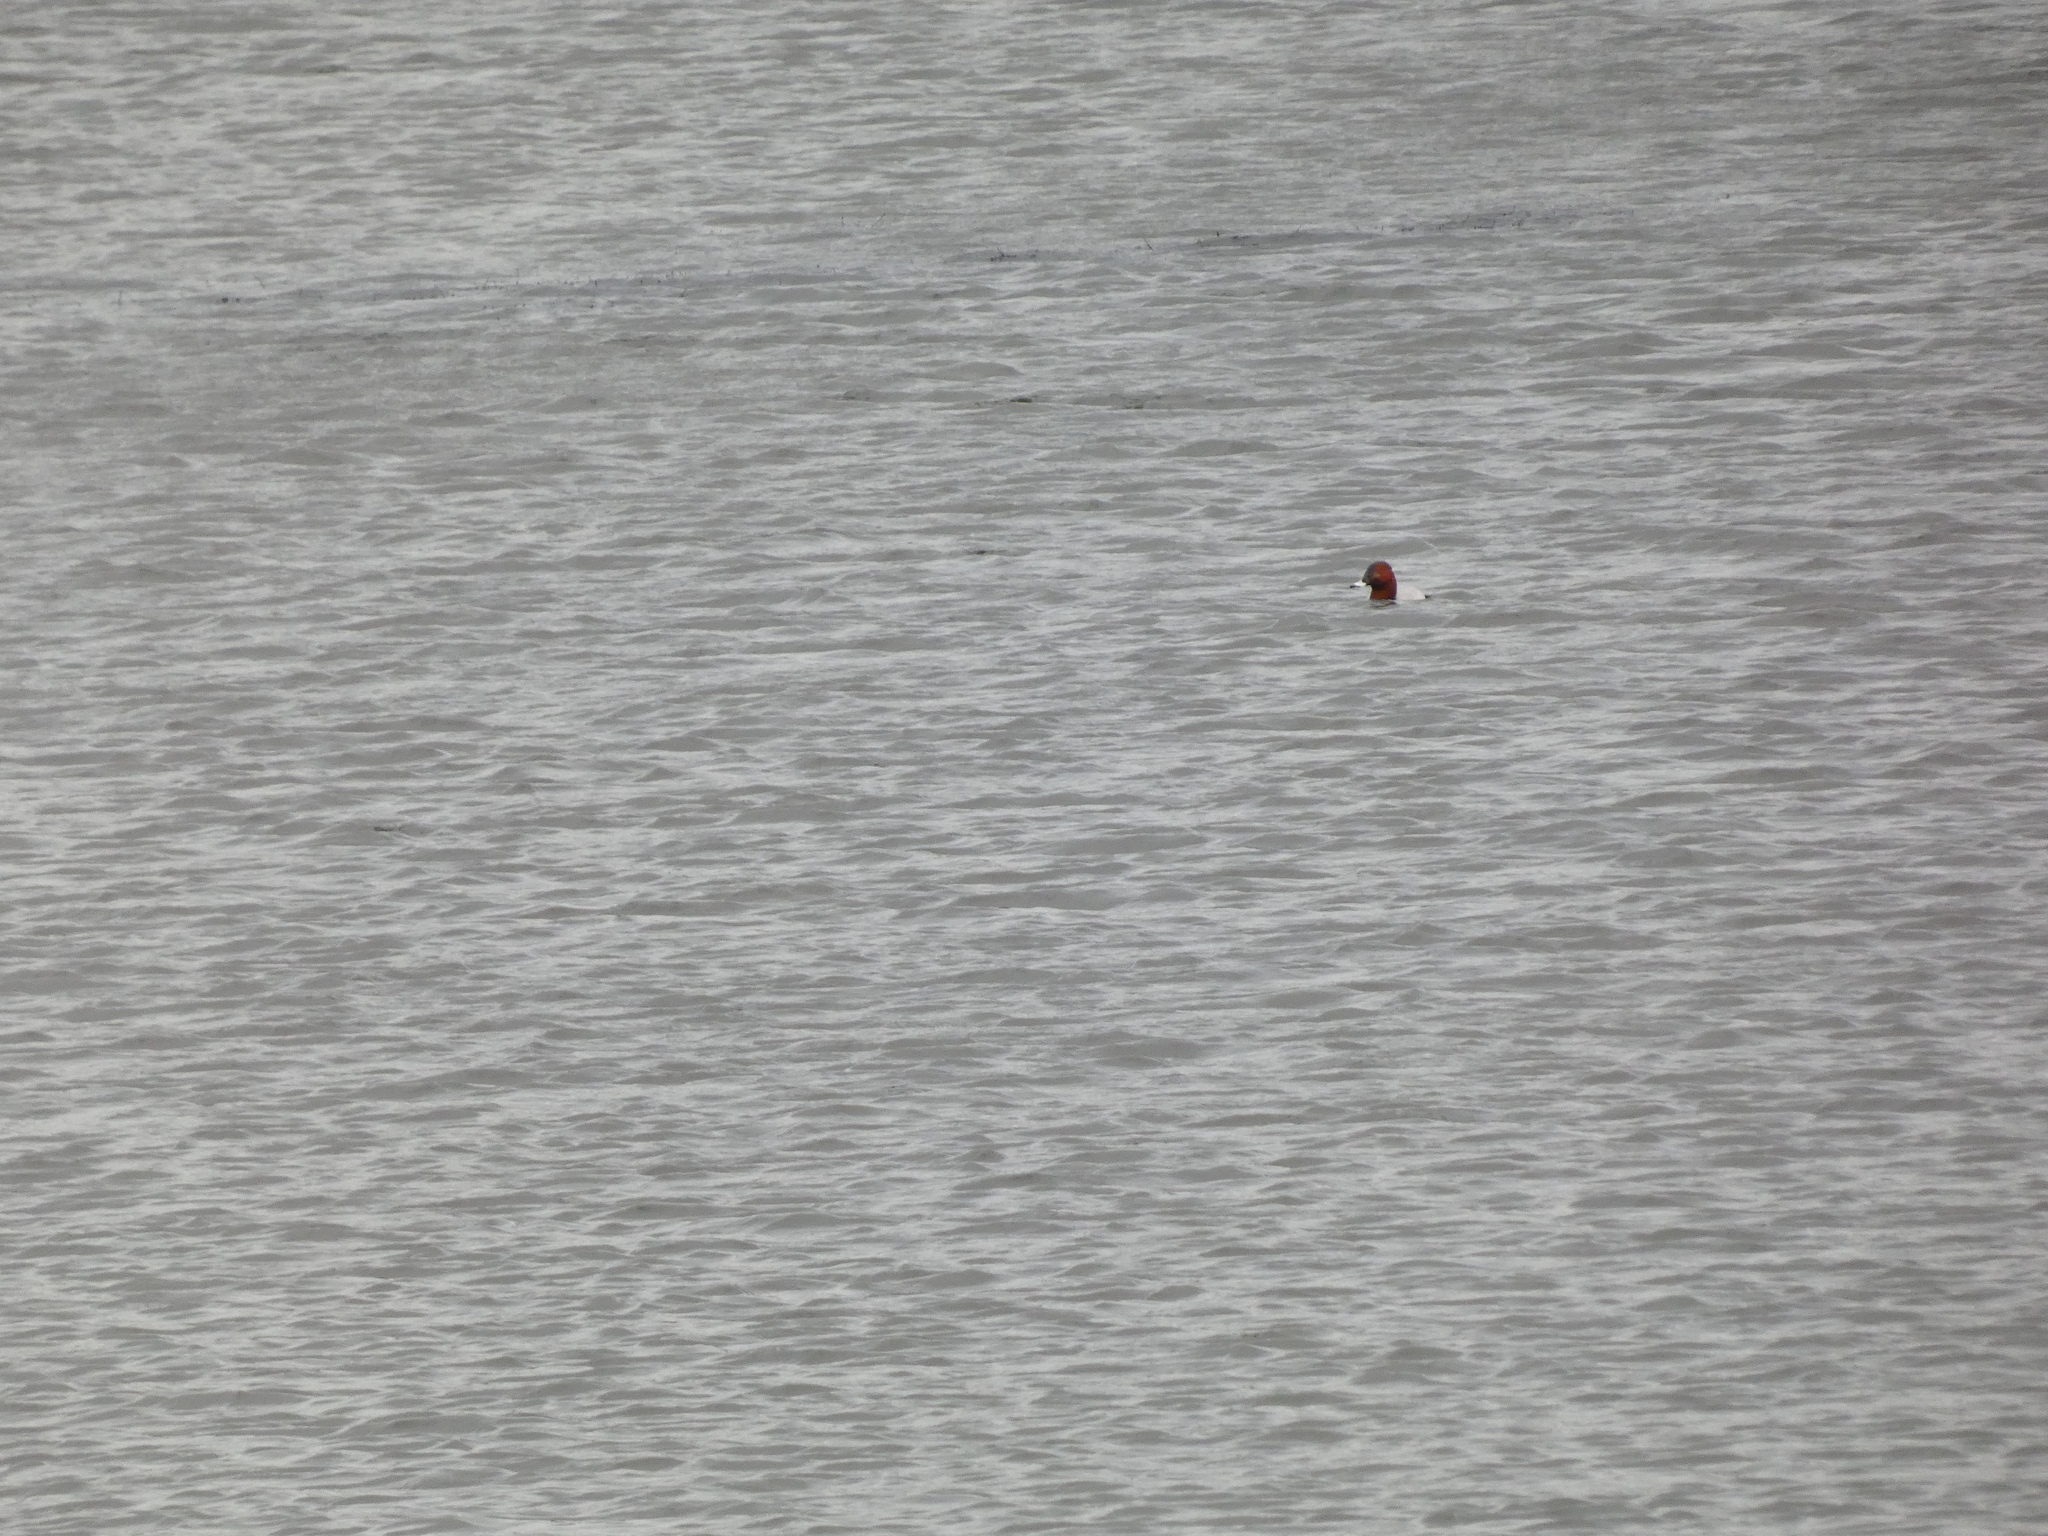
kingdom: Animalia
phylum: Chordata
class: Aves
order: Anseriformes
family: Anatidae
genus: Aythya
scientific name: Aythya ferina
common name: Common pochard
